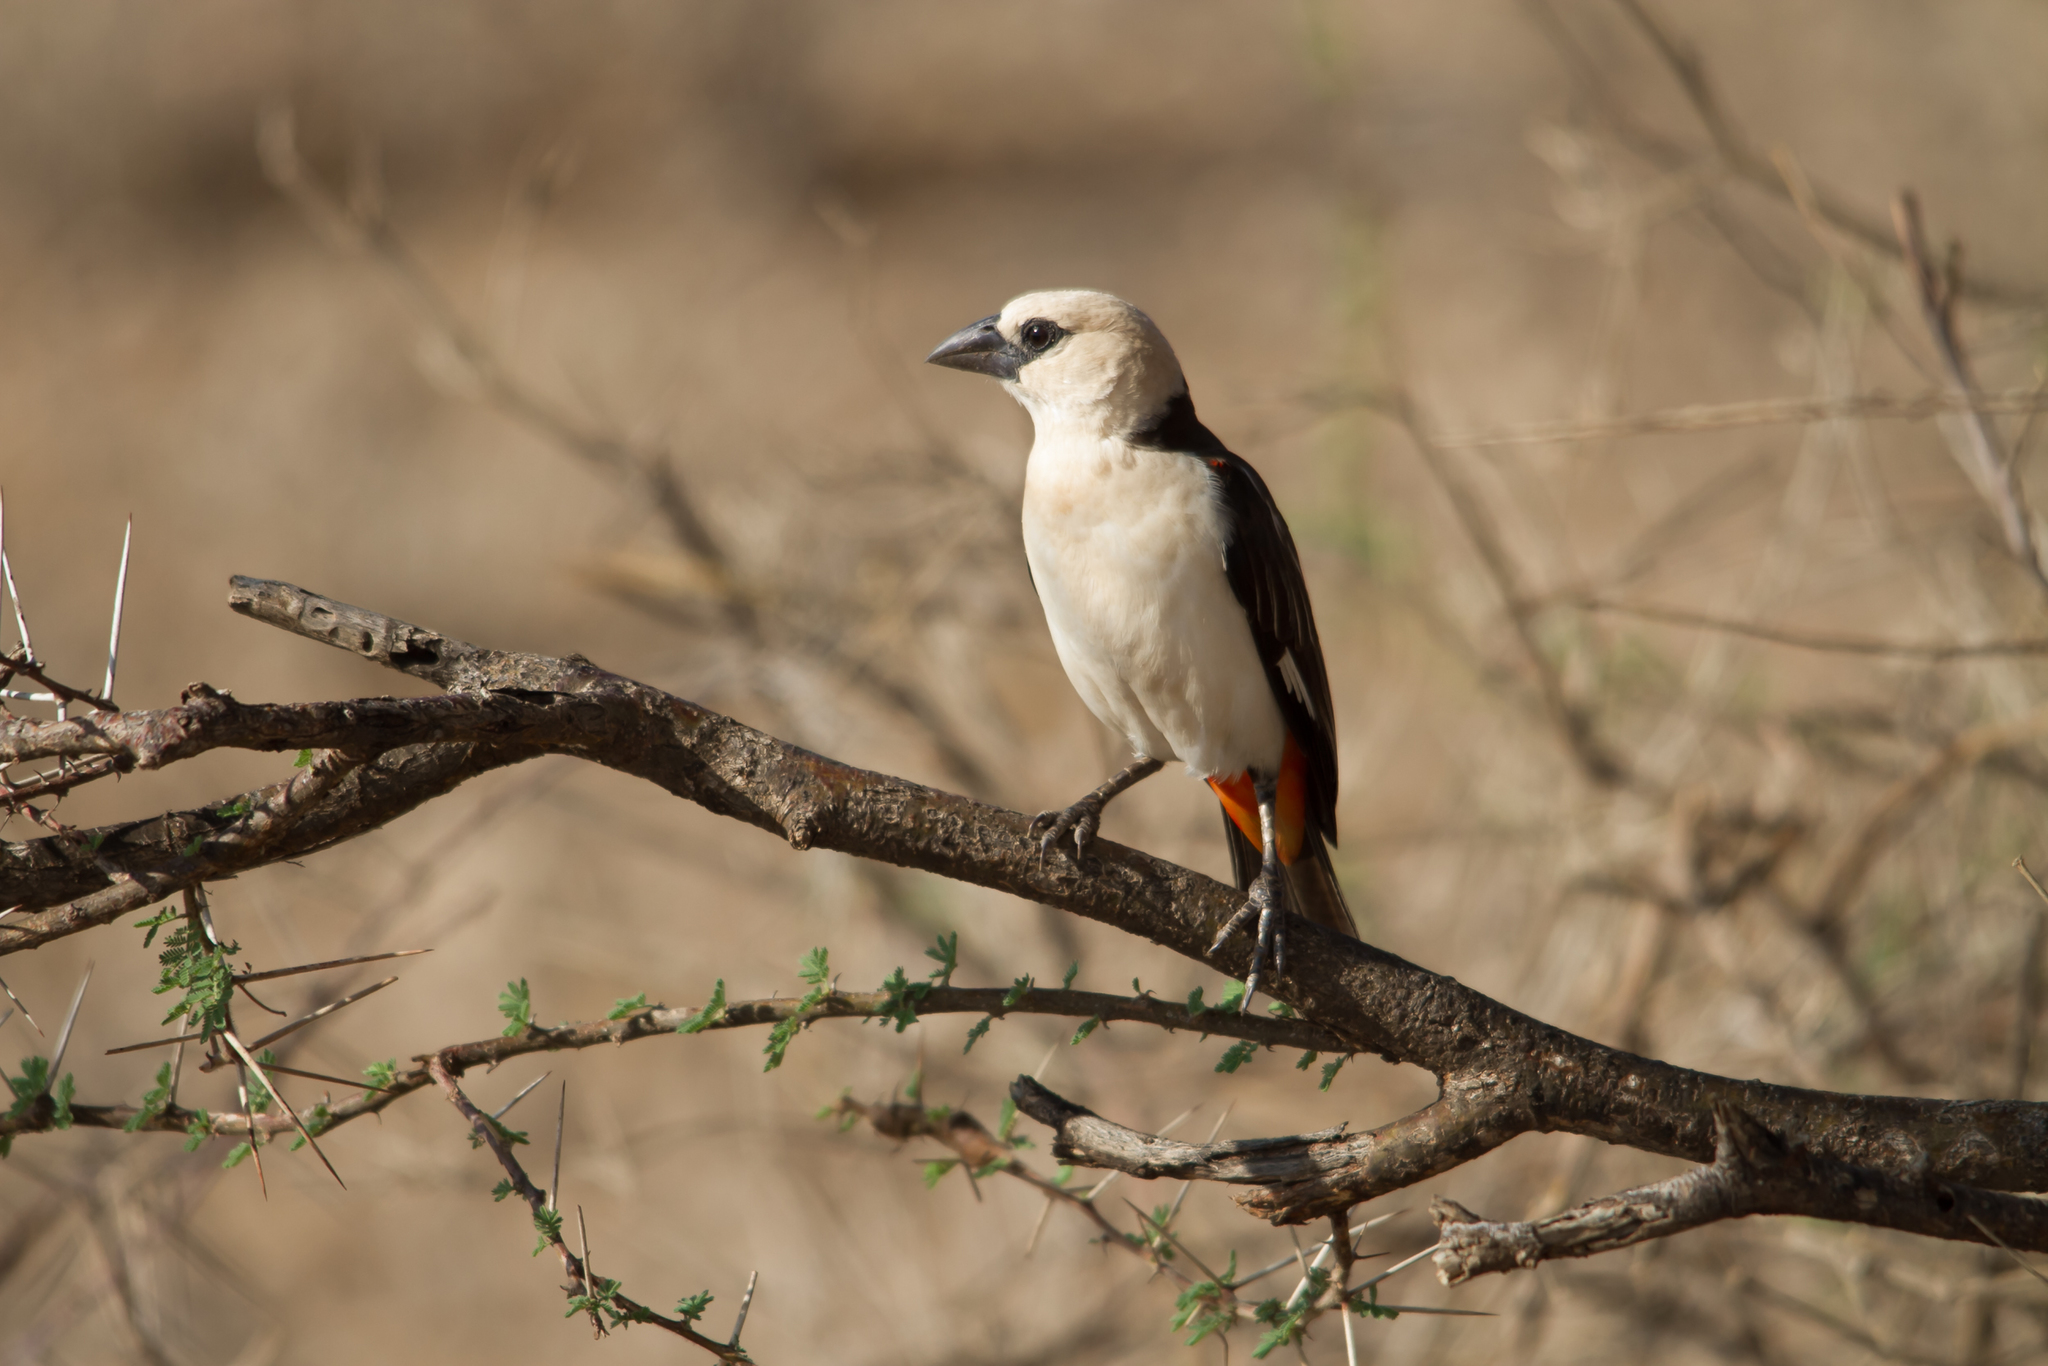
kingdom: Animalia
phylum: Chordata
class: Aves
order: Passeriformes
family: Ploceidae
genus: Dinemellia
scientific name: Dinemellia dinemelli
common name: White-headed buffalo weaver
